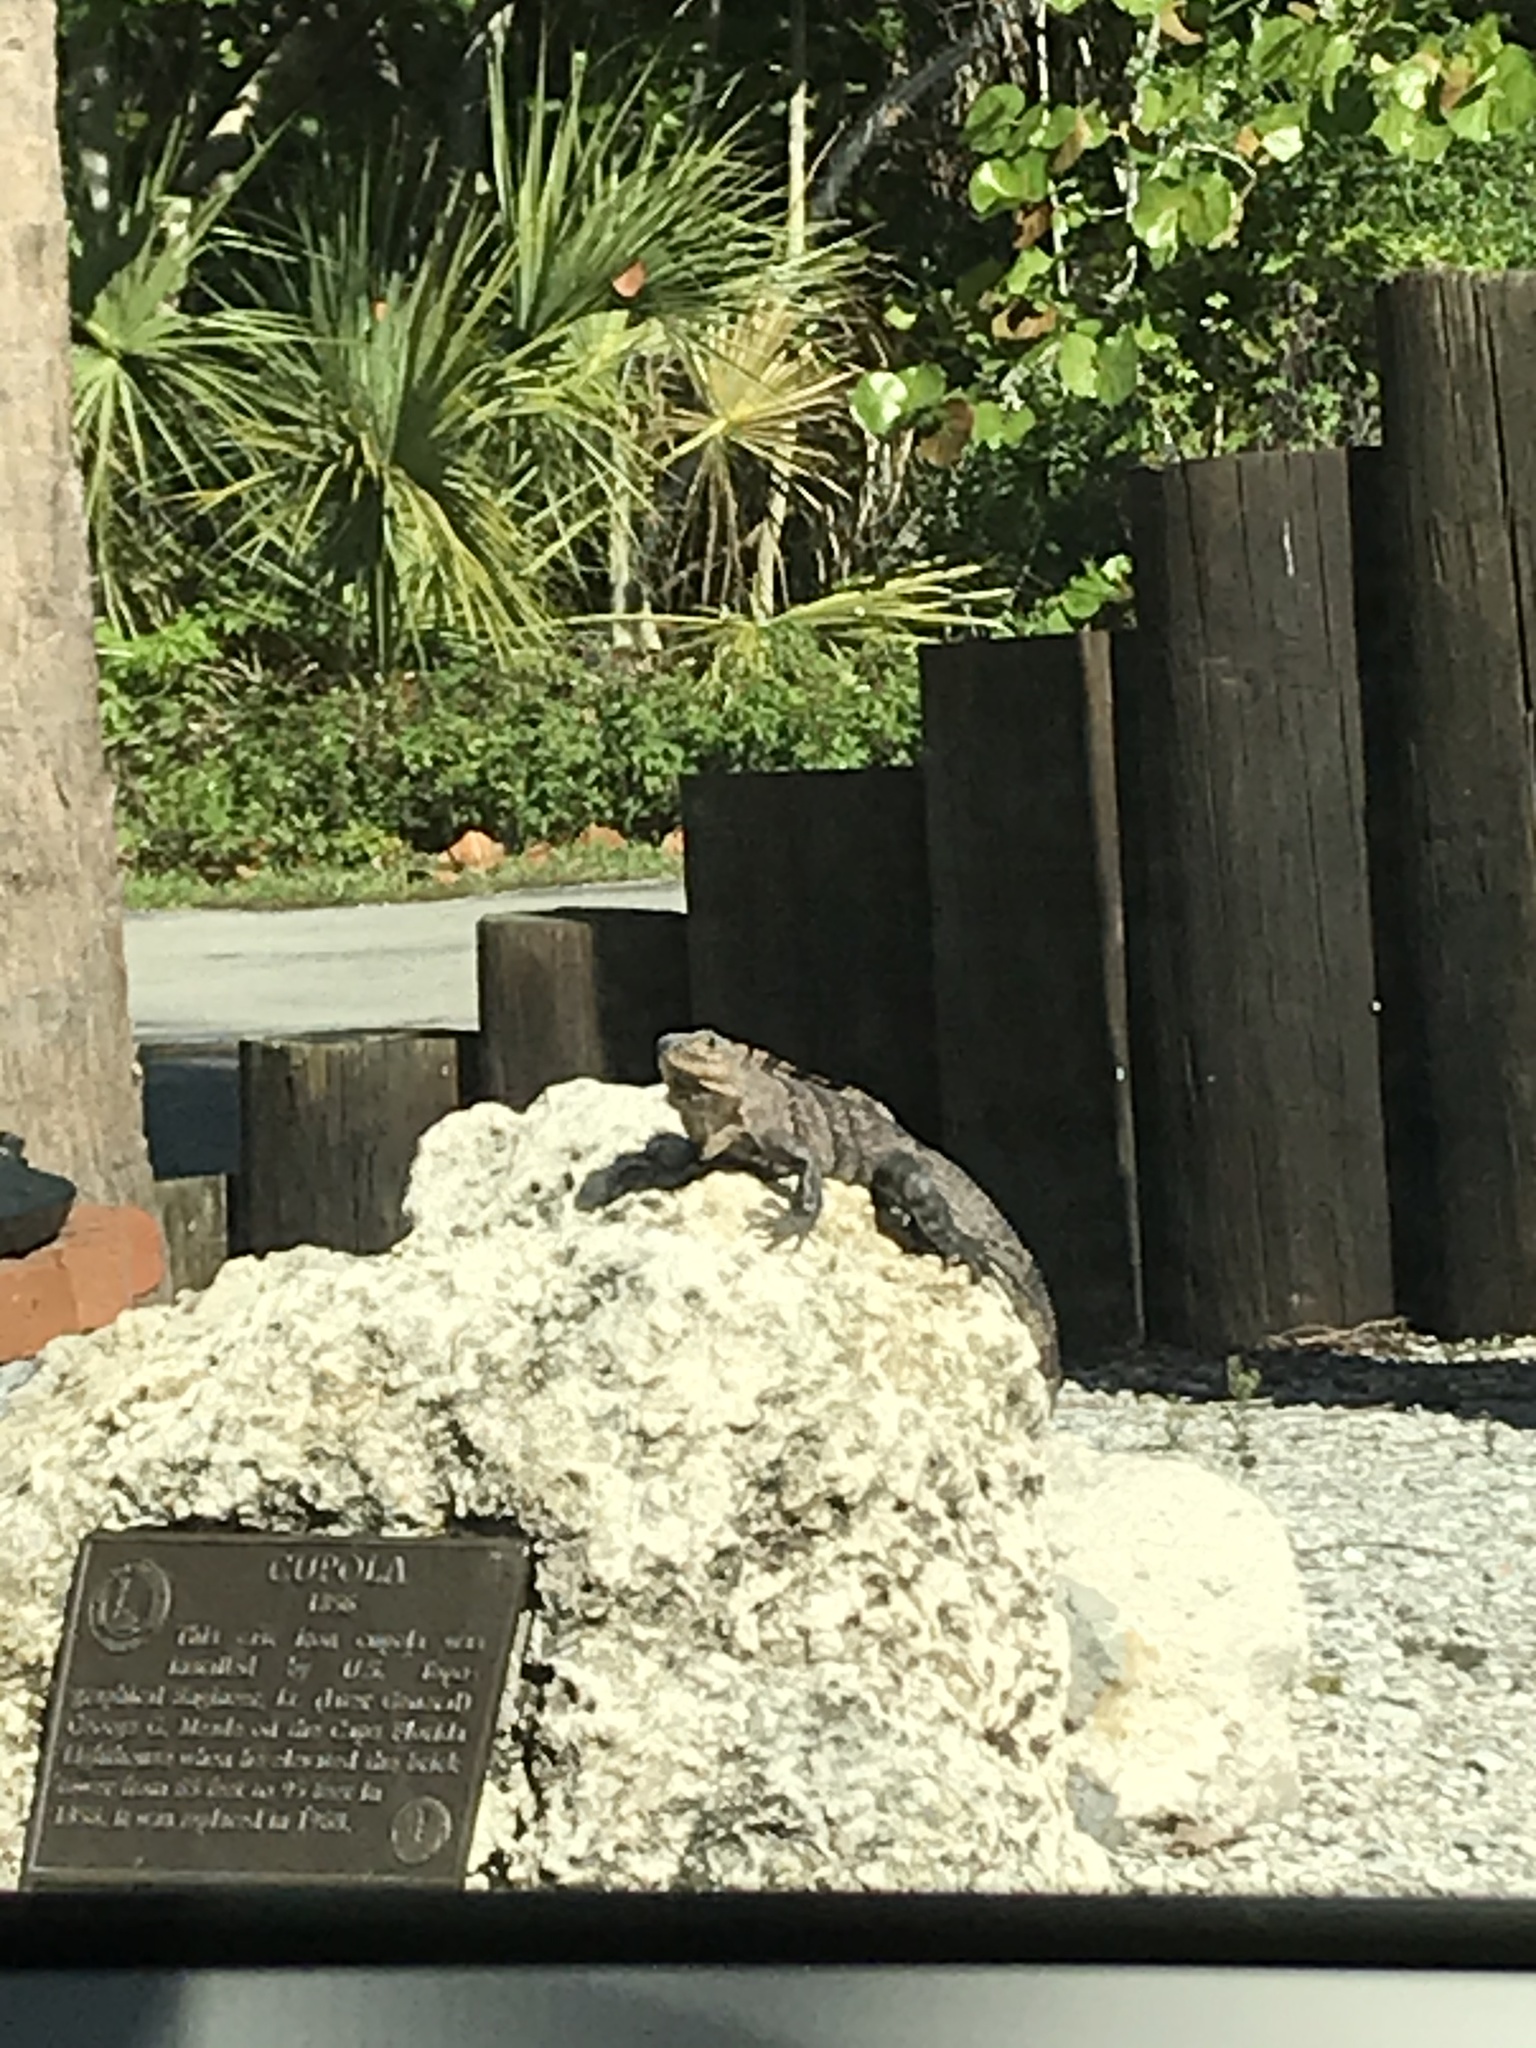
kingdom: Animalia
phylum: Chordata
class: Squamata
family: Iguanidae
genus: Ctenosaura
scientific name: Ctenosaura similis
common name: Black spiny-tailed iguana
